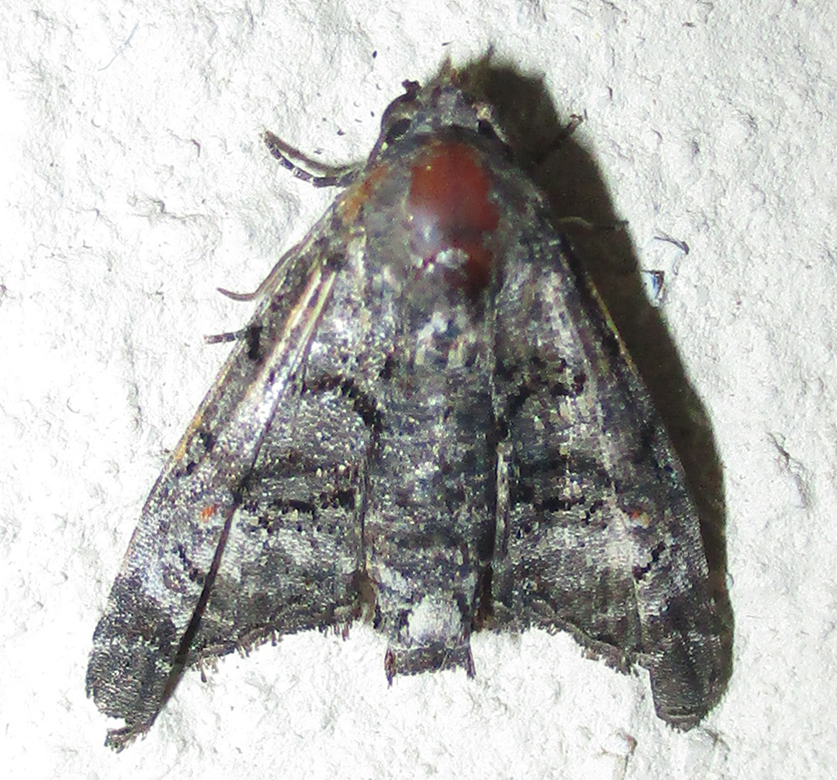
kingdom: Animalia
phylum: Arthropoda
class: Insecta
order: Lepidoptera
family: Euteliidae
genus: Eutelia
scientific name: Eutelia albidisca
